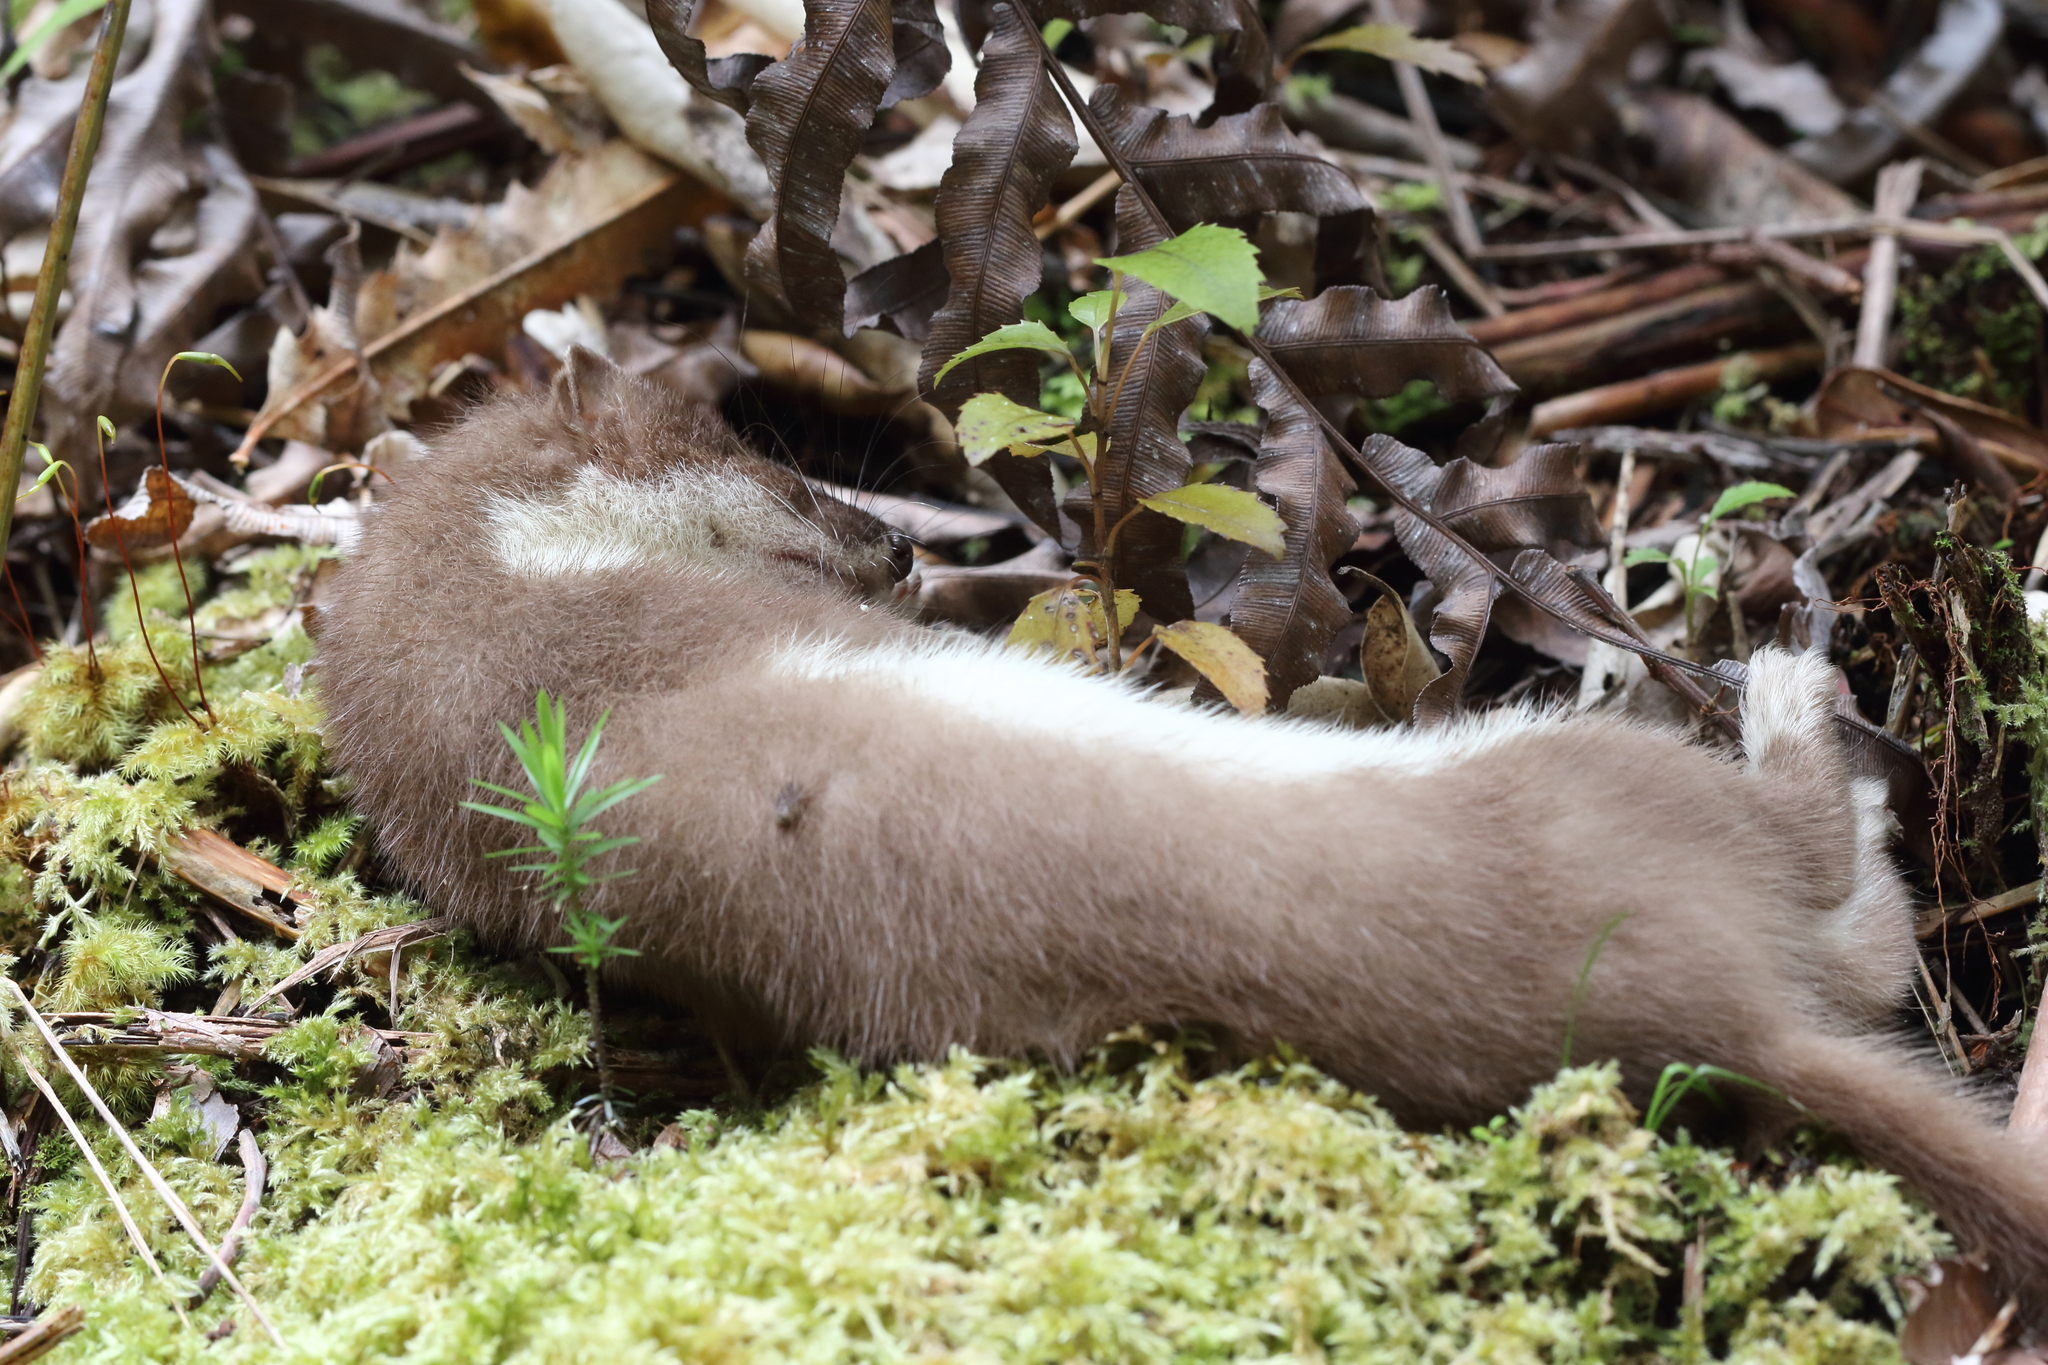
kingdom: Animalia
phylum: Chordata
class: Mammalia
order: Carnivora
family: Mustelidae
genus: Mustela
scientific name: Mustela erminea
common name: Stoat
